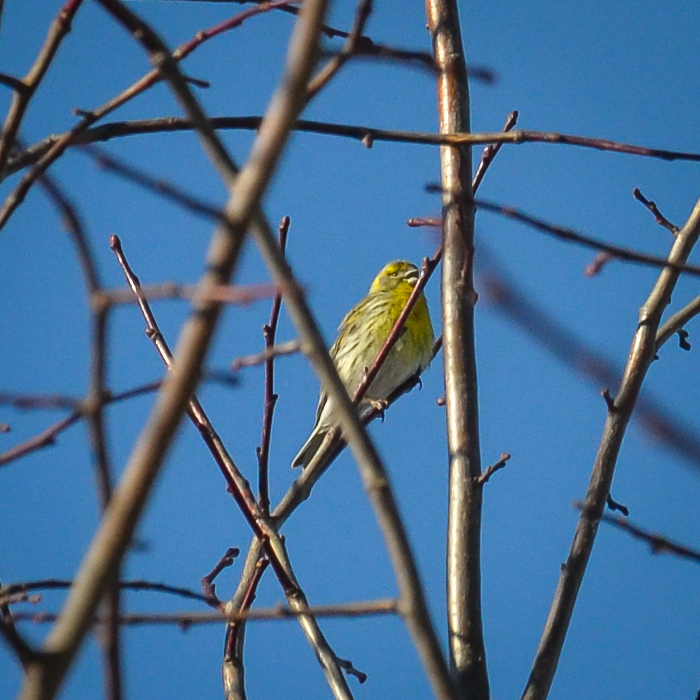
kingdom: Animalia
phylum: Chordata
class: Aves
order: Passeriformes
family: Fringillidae
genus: Serinus
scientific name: Serinus serinus
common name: European serin
